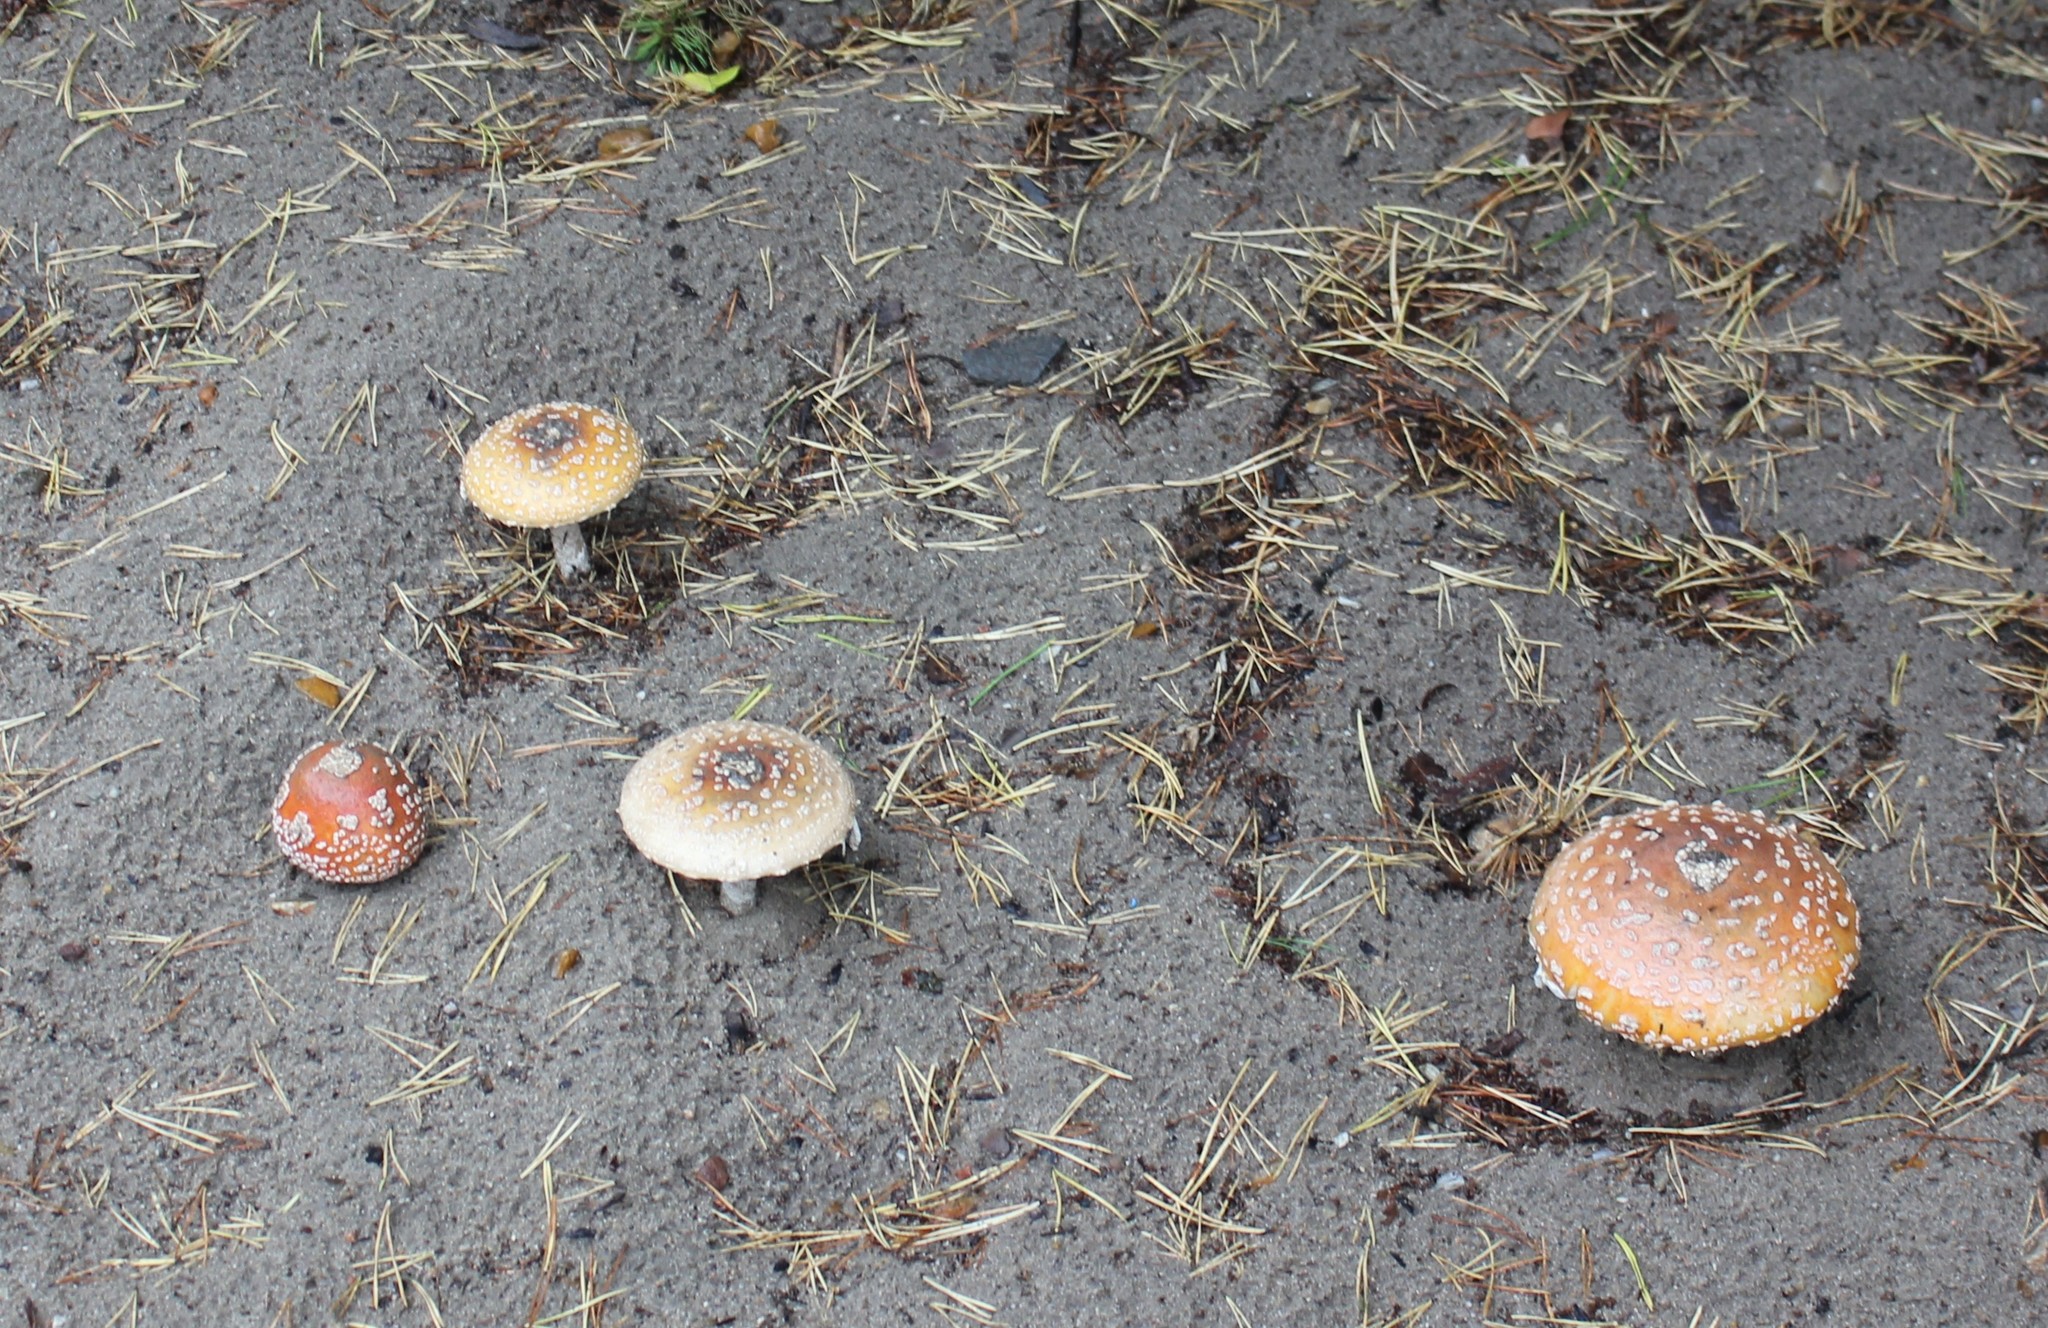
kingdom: Fungi
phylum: Basidiomycota
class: Agaricomycetes
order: Agaricales
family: Amanitaceae
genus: Amanita
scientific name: Amanita
